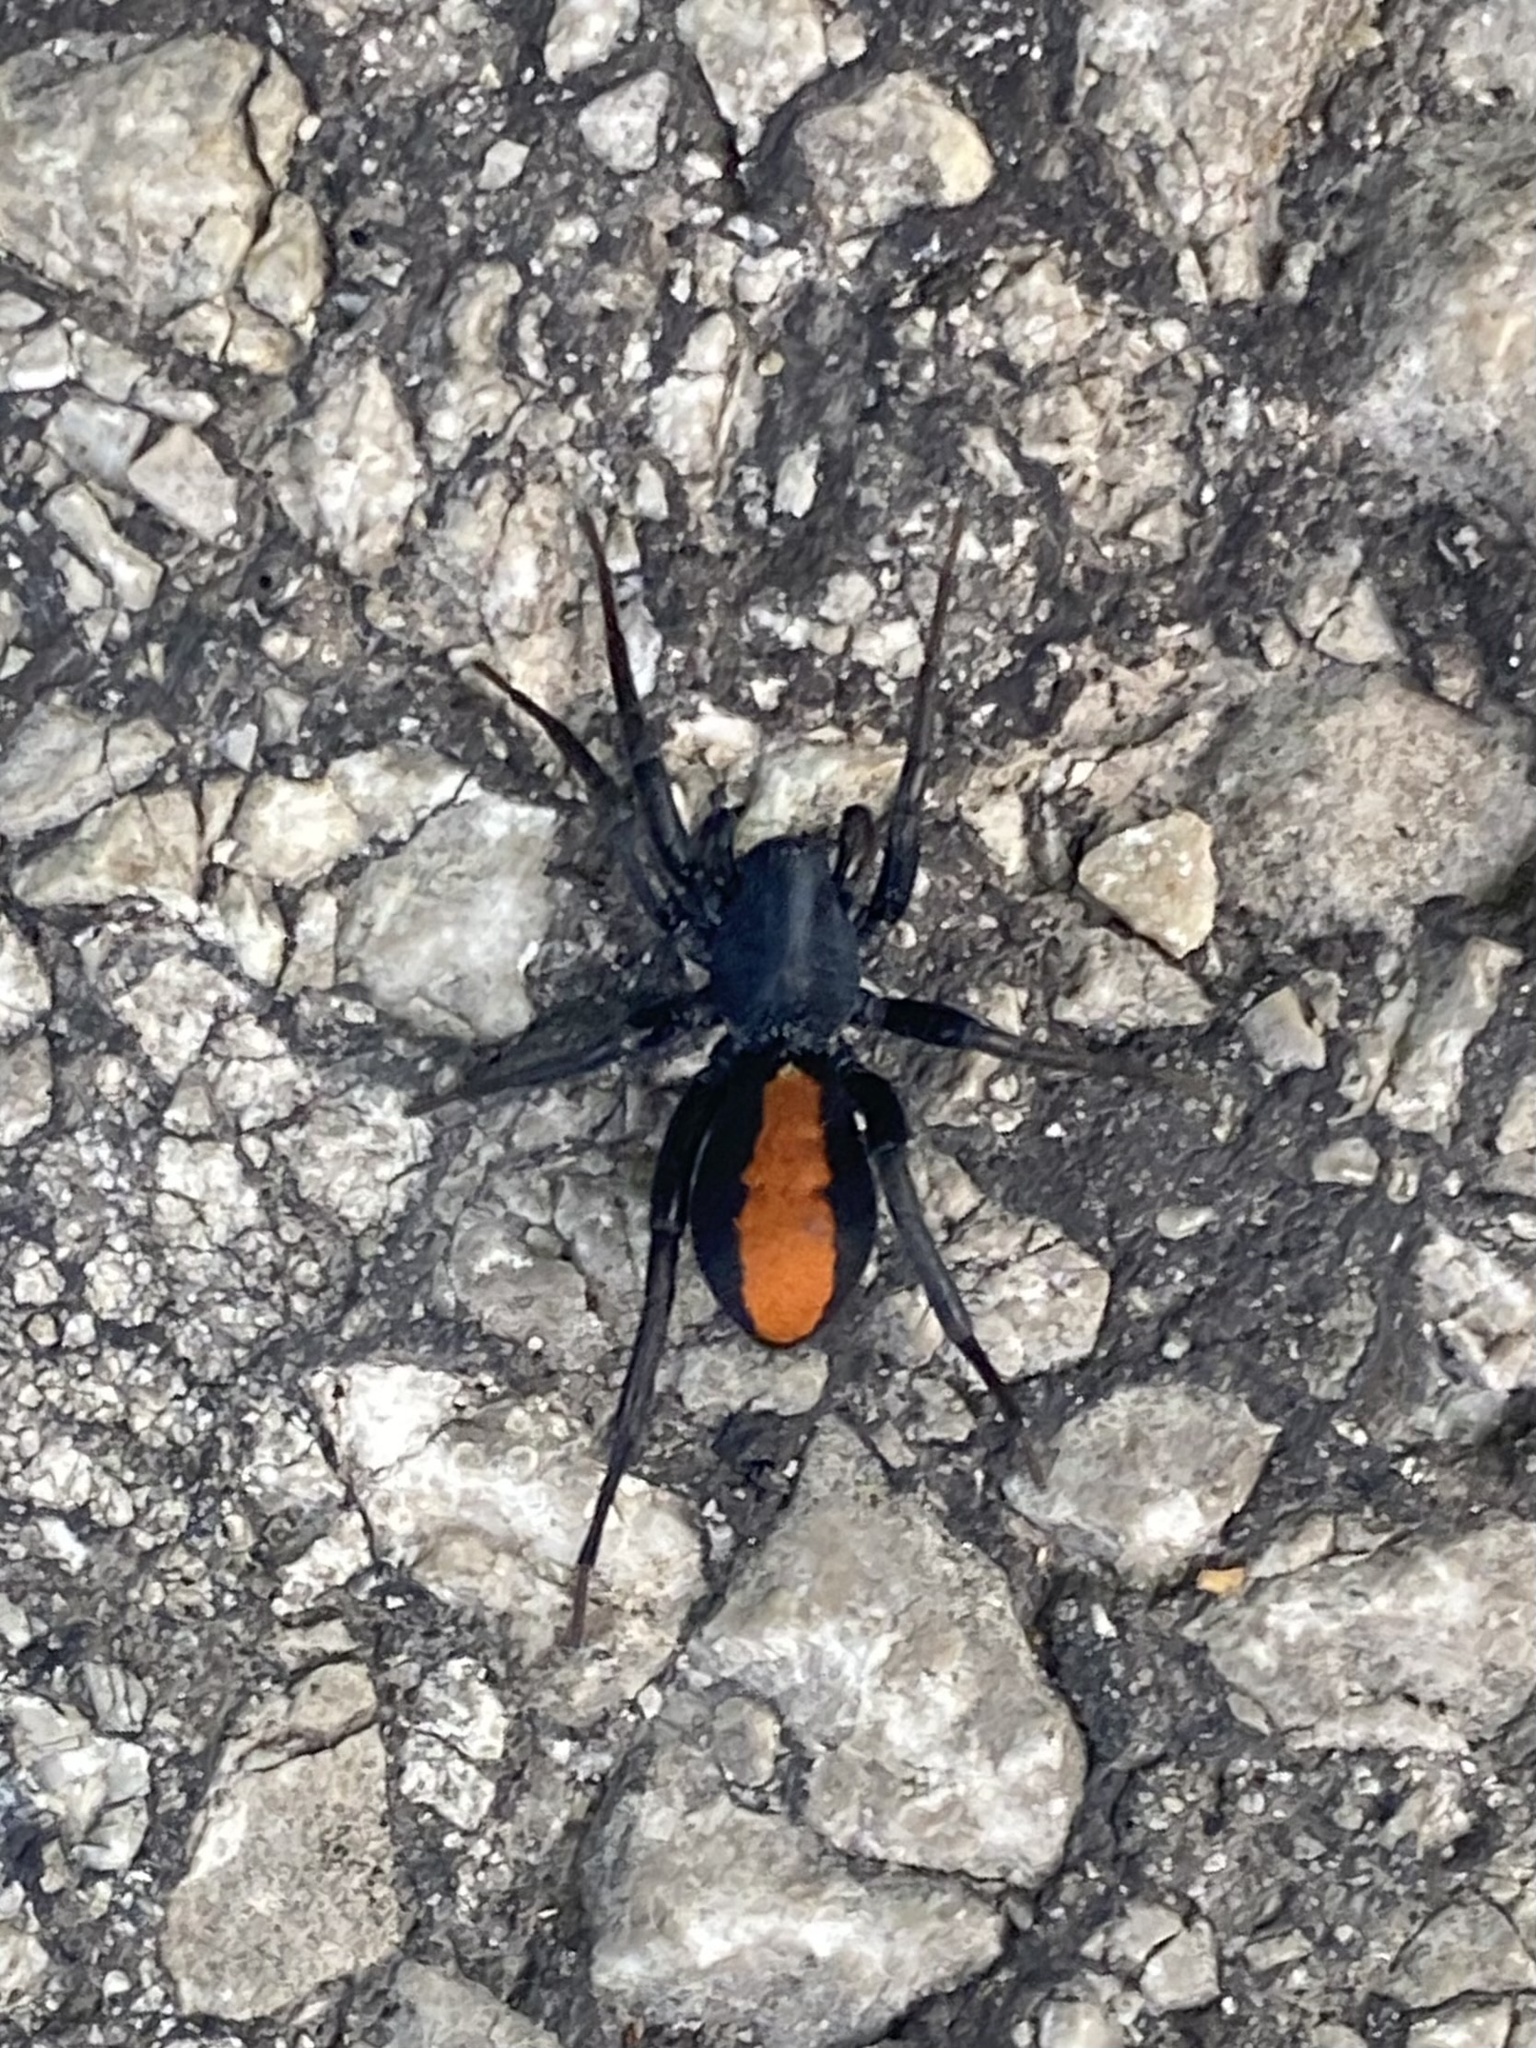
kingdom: Animalia
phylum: Arthropoda
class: Arachnida
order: Araneae
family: Corinnidae
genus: Castianeira
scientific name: Castianeira descripta
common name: Red-spotted ant-mimic sac spider
